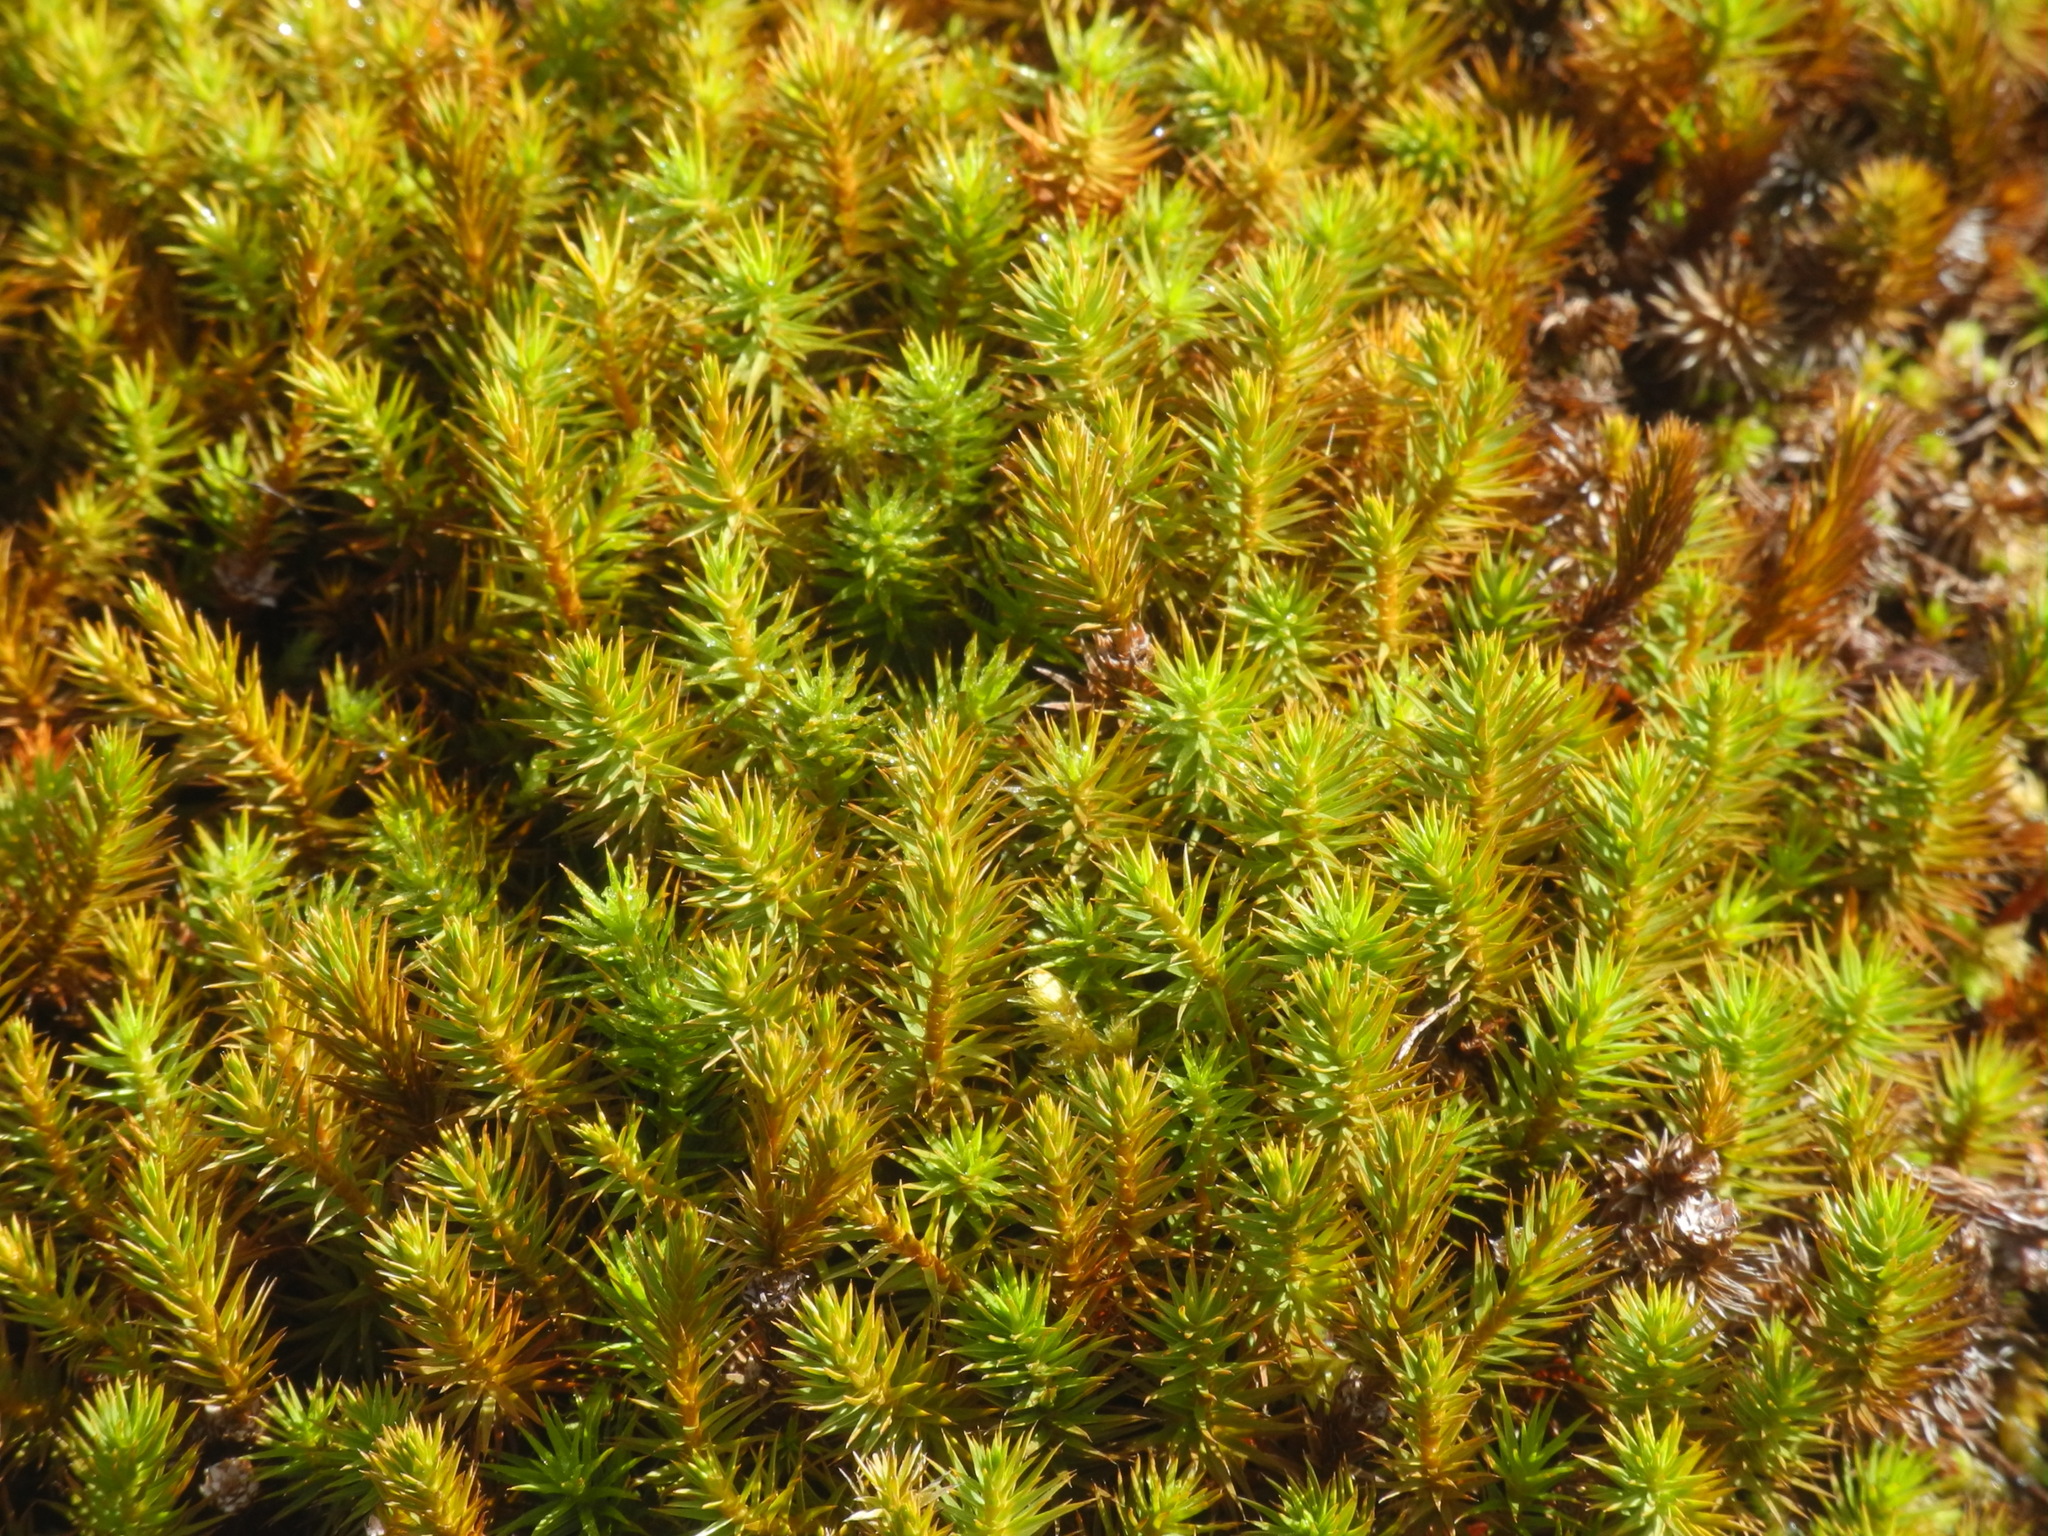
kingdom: Plantae
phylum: Bryophyta
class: Polytrichopsida
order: Polytrichales
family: Polytrichaceae
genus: Polytrichum
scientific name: Polytrichum commune
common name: Common haircap
